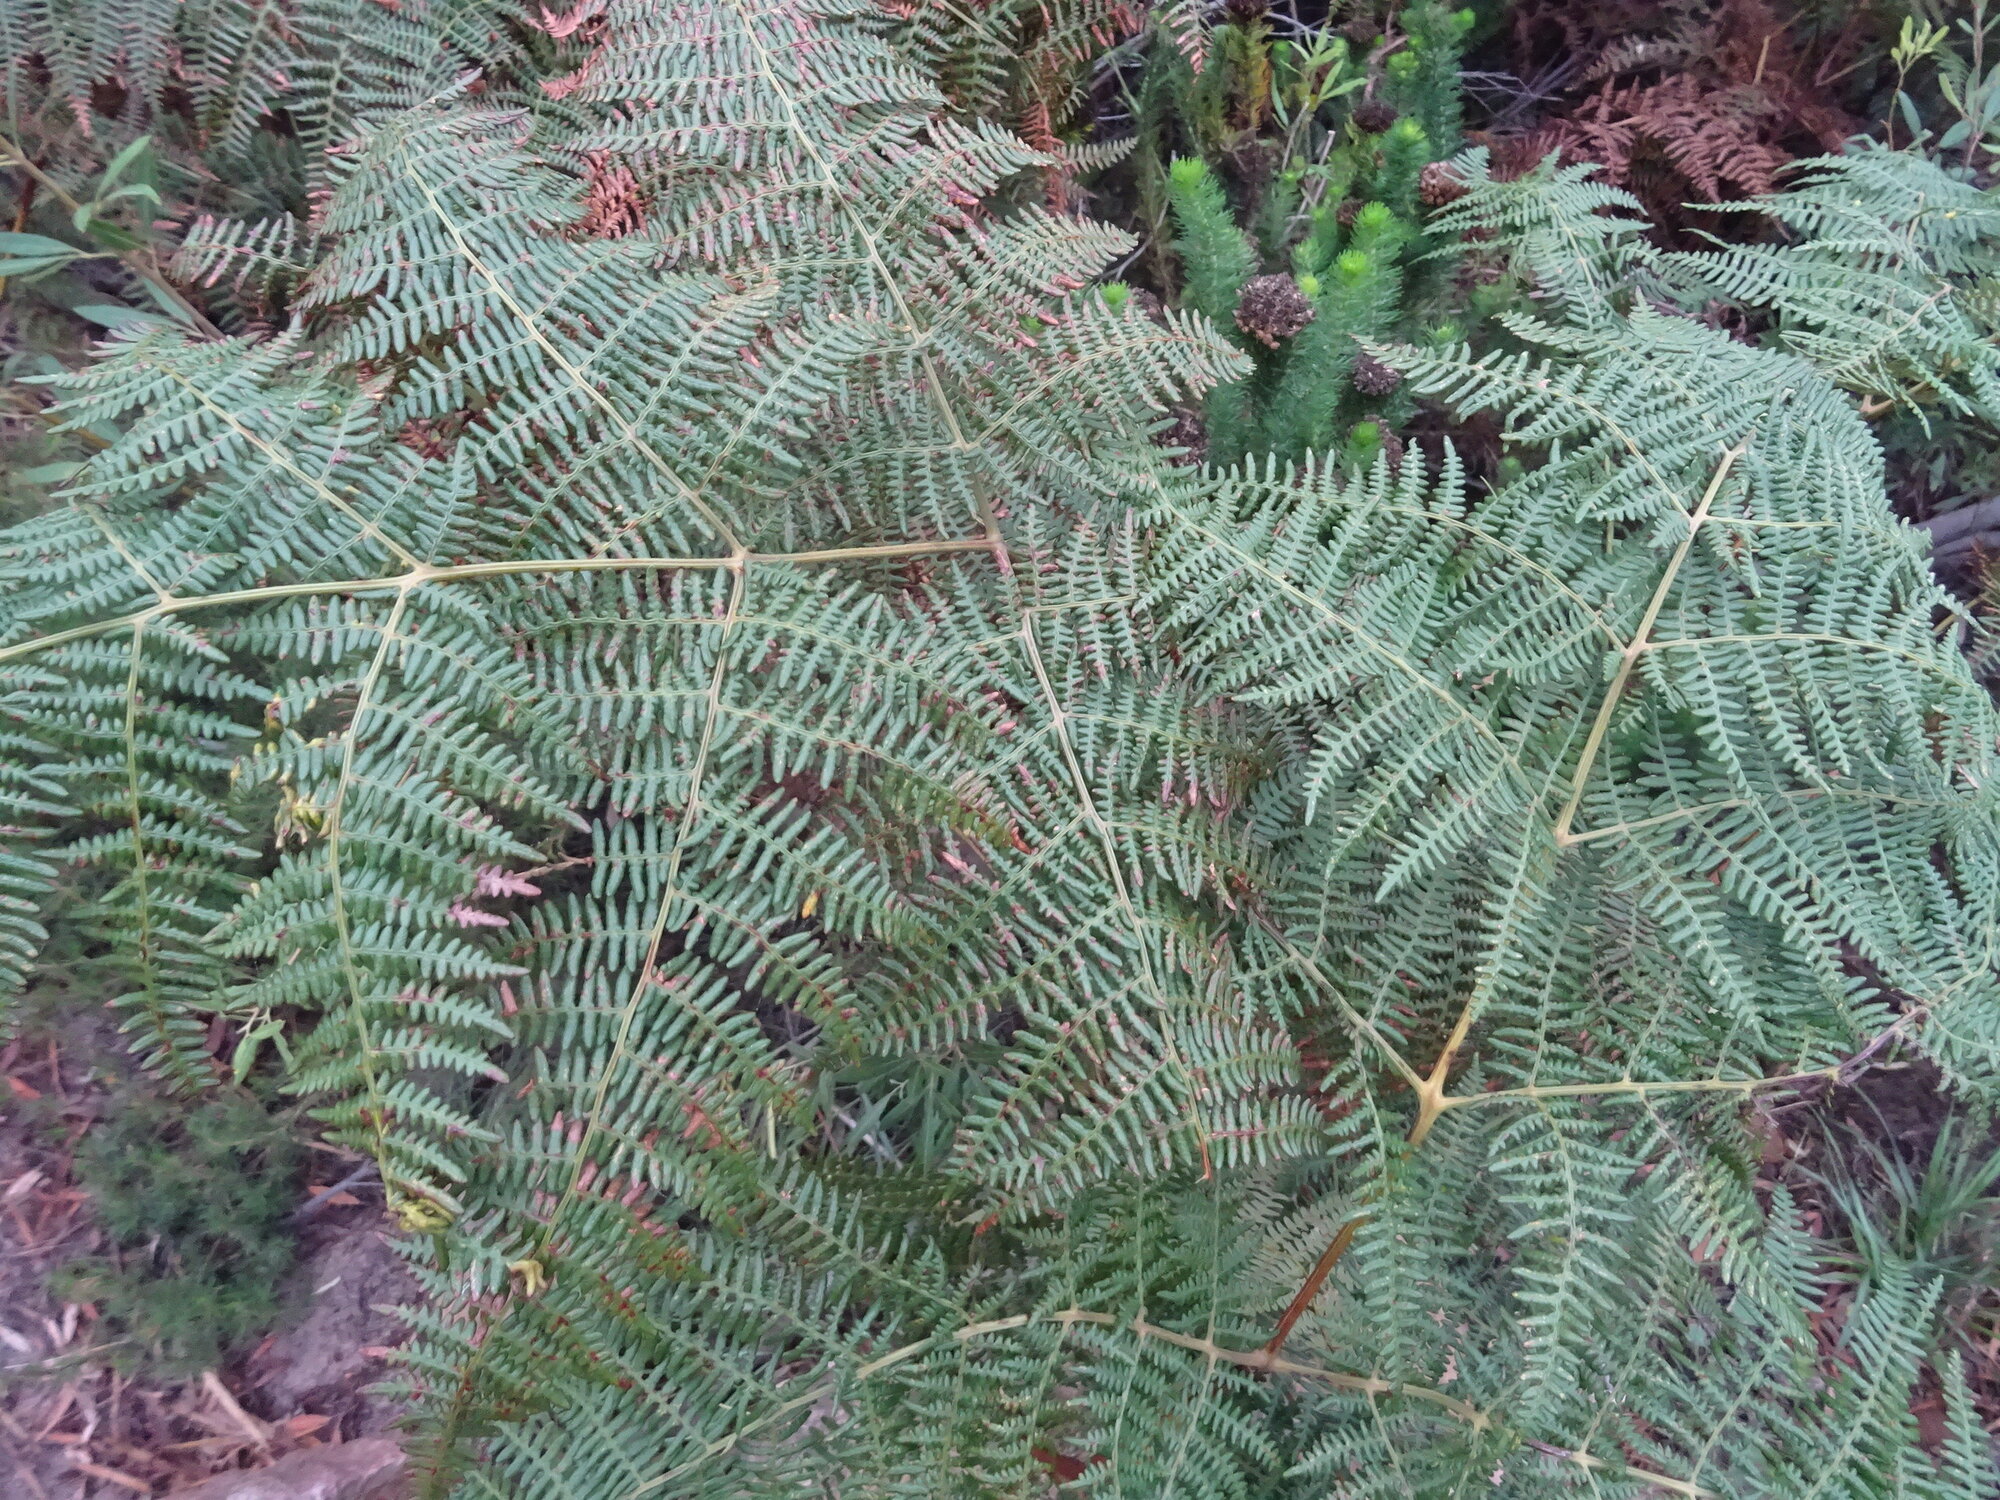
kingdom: Plantae
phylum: Tracheophyta
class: Polypodiopsida
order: Polypodiales
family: Dennstaedtiaceae
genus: Pteridium
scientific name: Pteridium aquilinum
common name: Bracken
